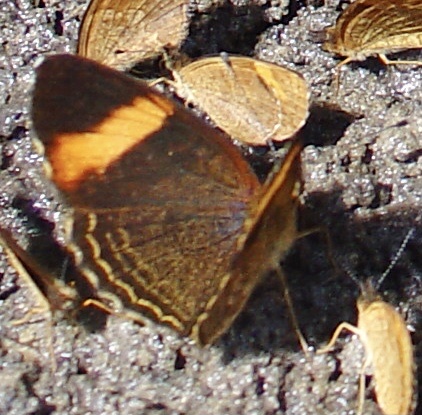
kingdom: Animalia
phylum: Arthropoda
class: Insecta
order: Lepidoptera
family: Nymphalidae
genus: Telenassa
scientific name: Telenassa jana
